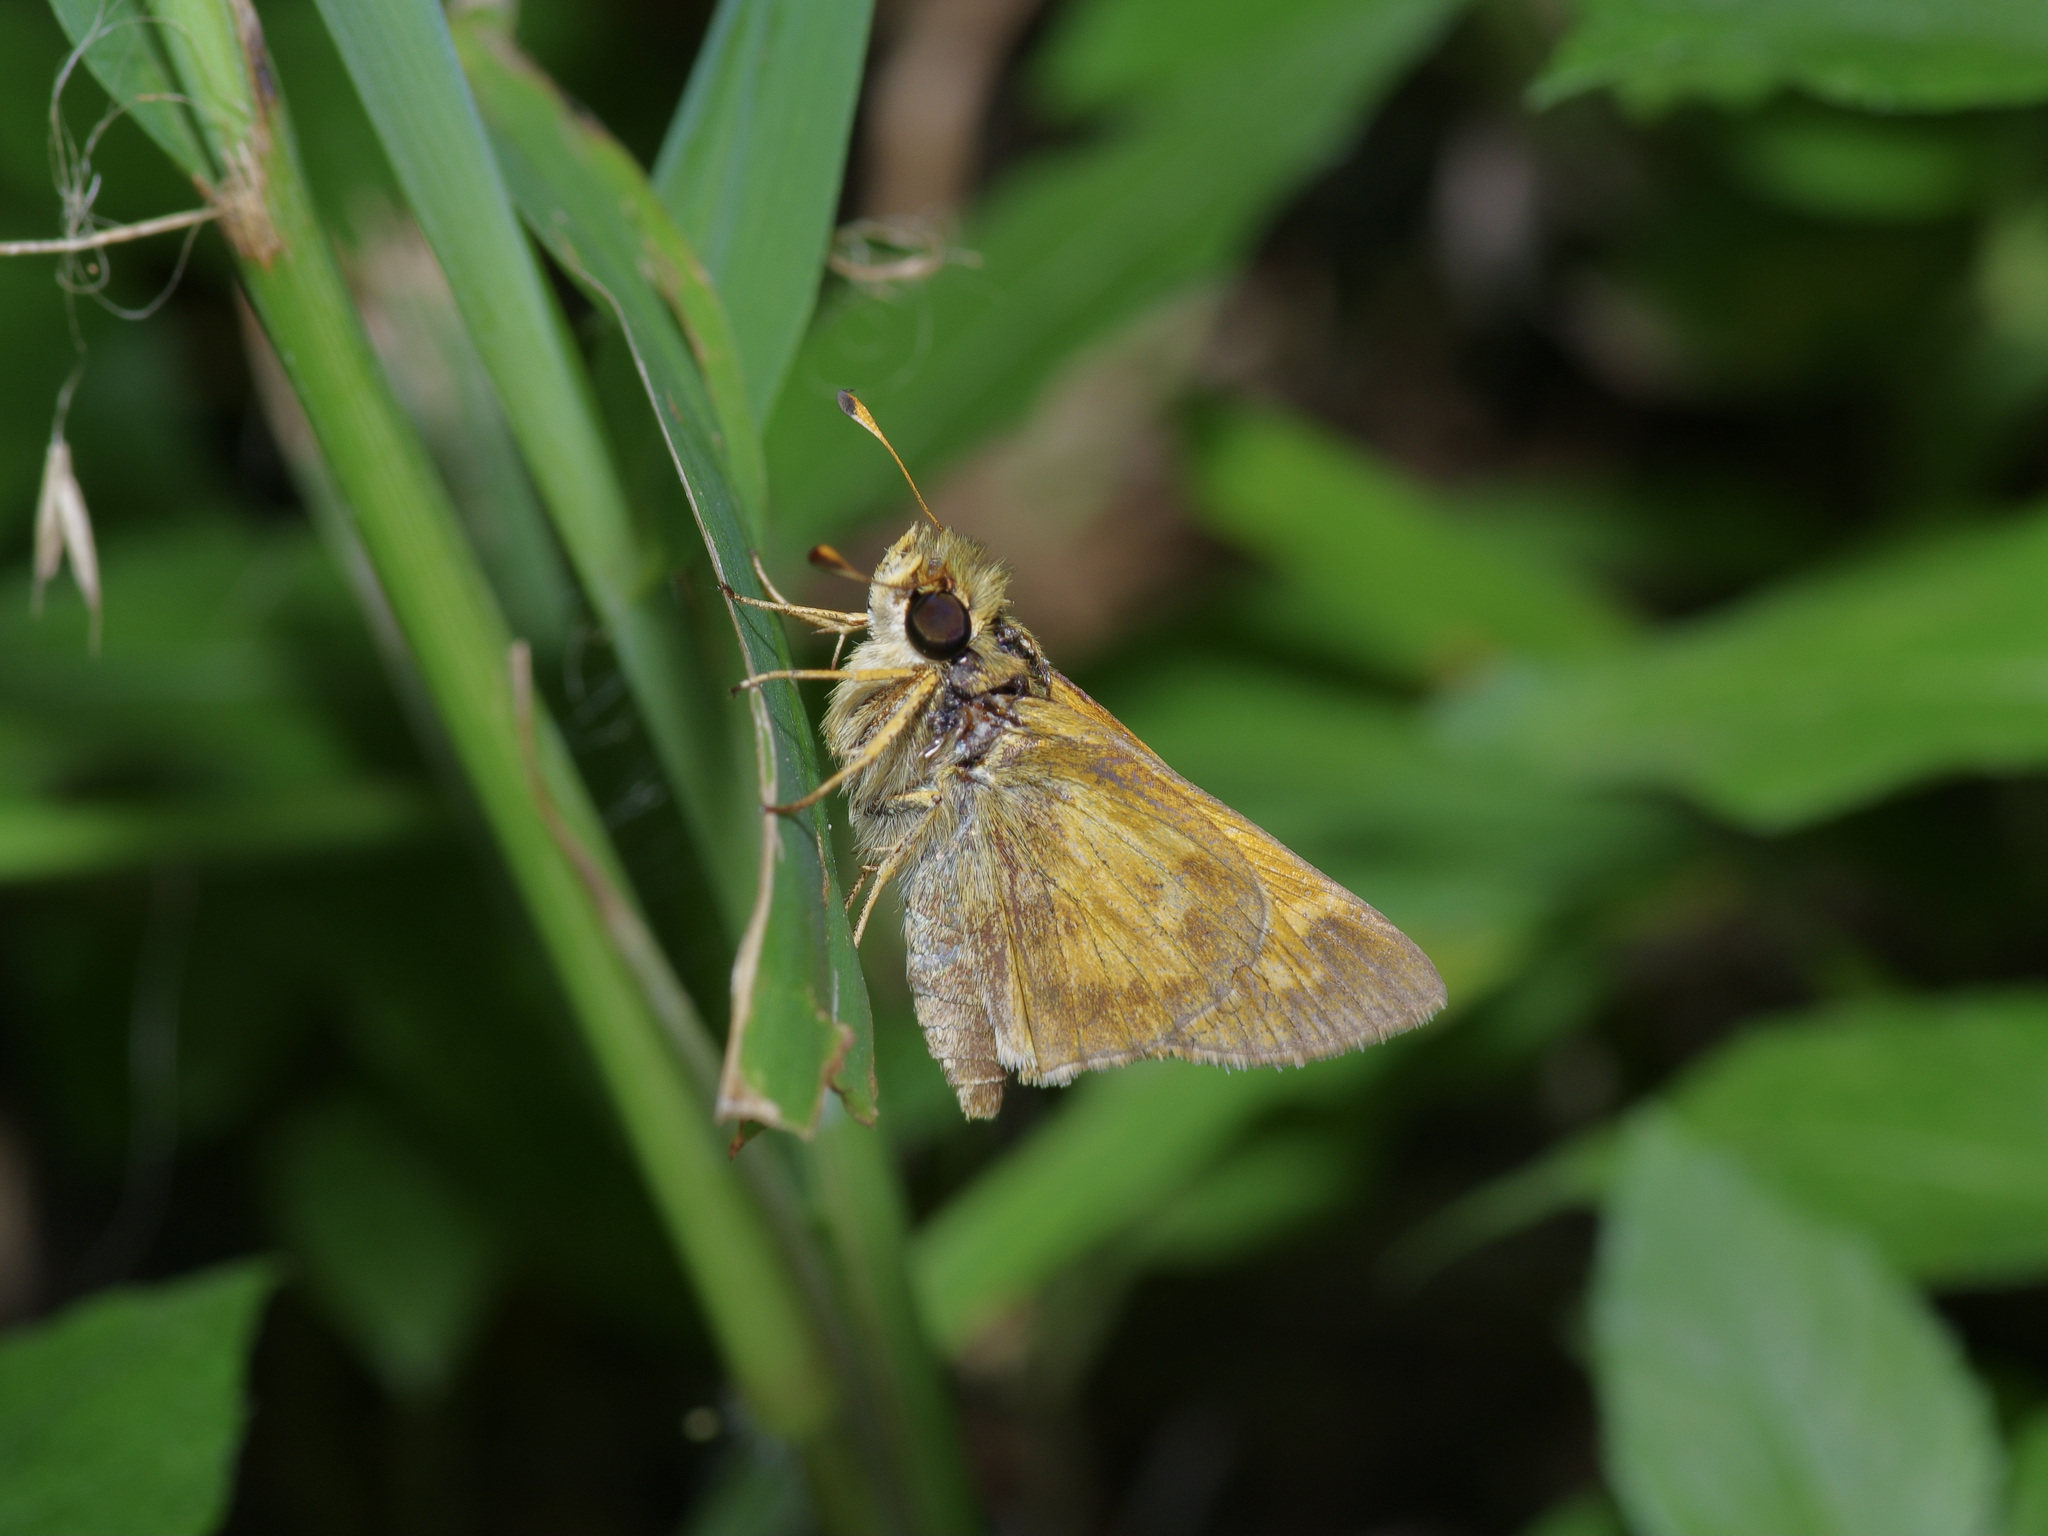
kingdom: Animalia
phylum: Arthropoda
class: Insecta
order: Lepidoptera
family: Hesperiidae
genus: Atalopedes
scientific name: Atalopedes
